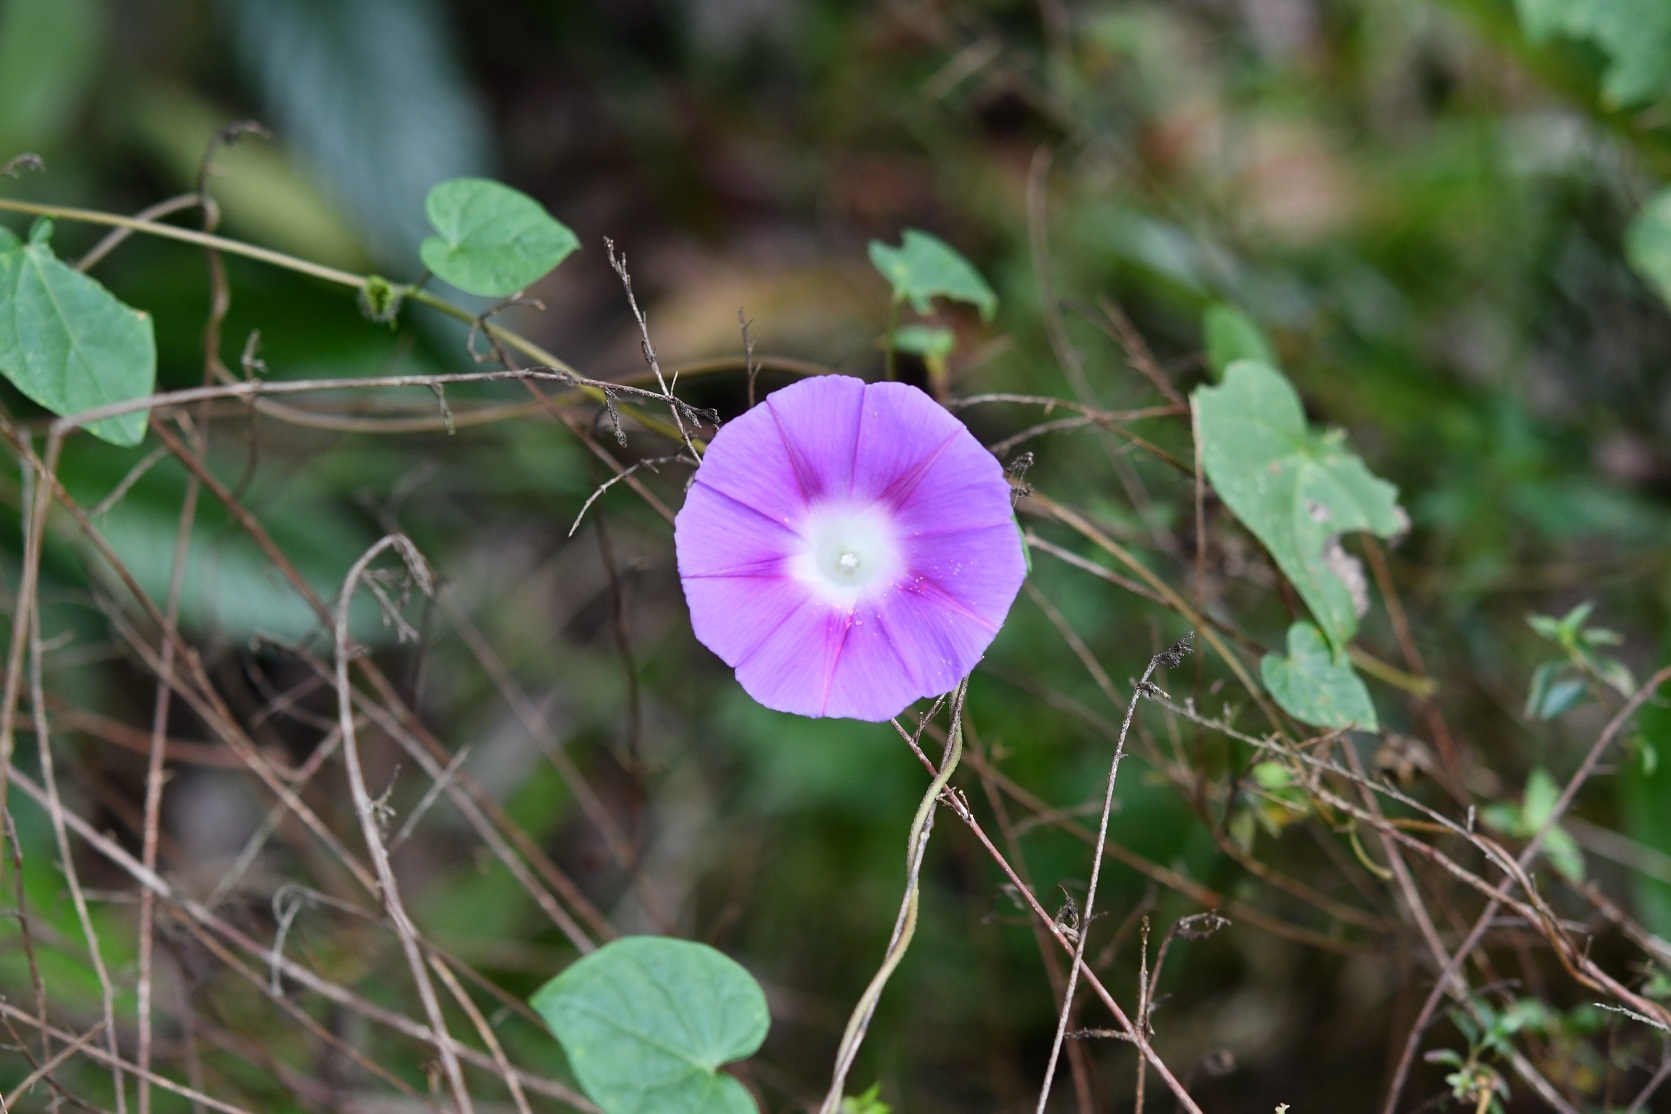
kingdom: Plantae
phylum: Tracheophyta
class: Magnoliopsida
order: Solanales
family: Convolvulaceae
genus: Ipomoea
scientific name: Ipomoea purpurea
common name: Common morning-glory
